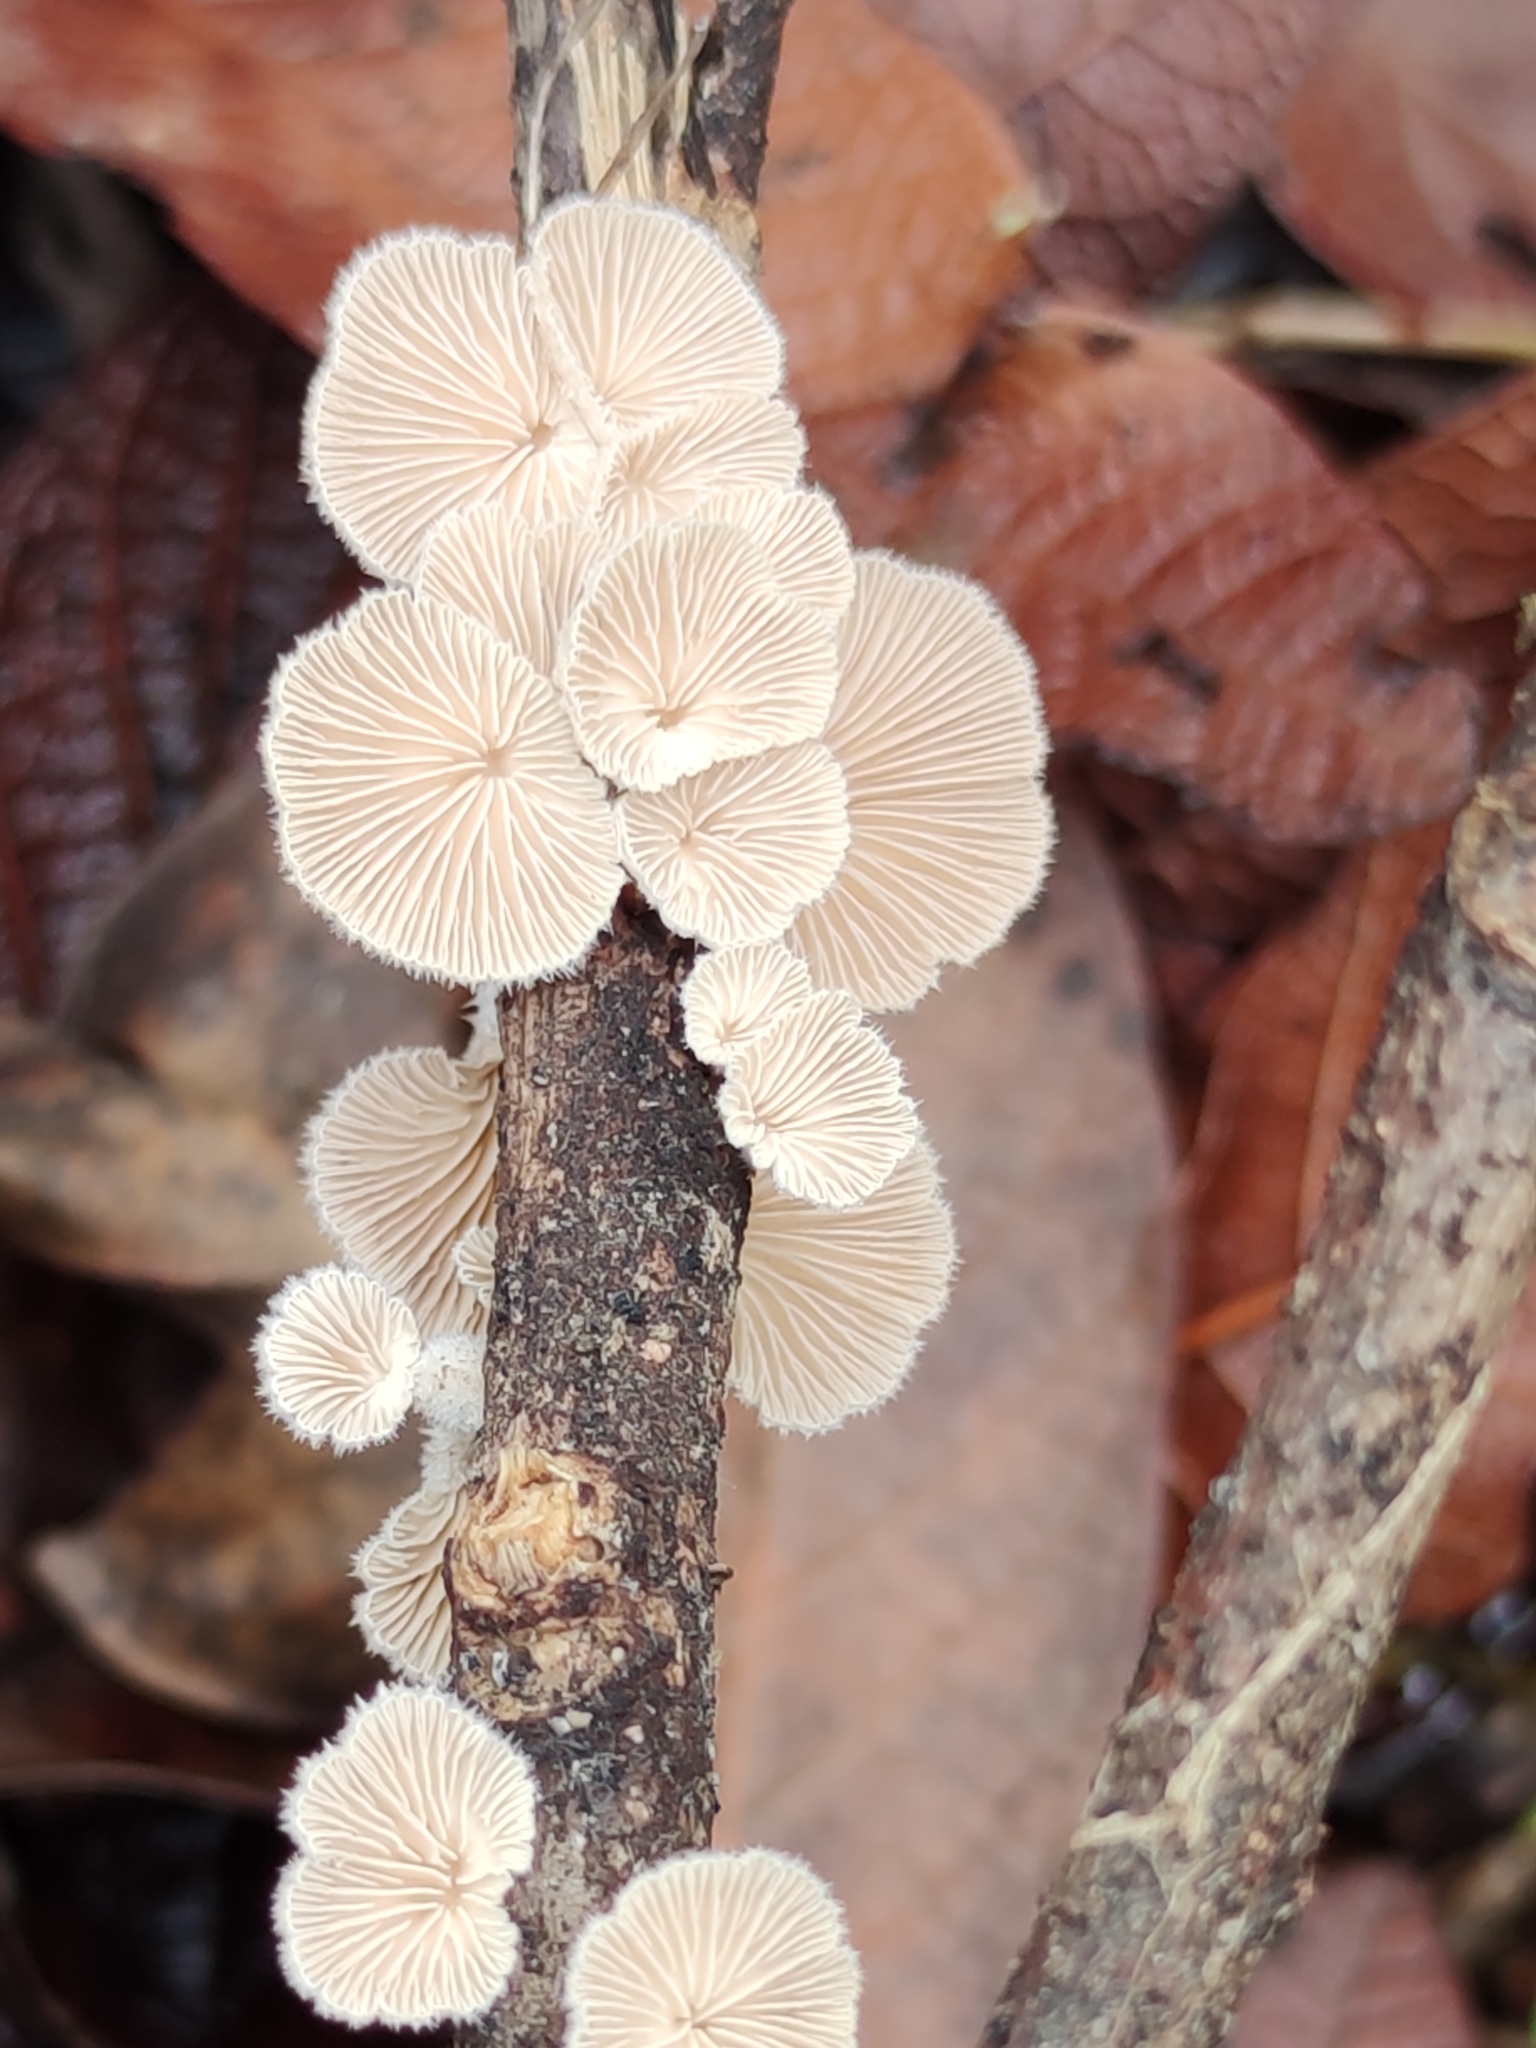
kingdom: Fungi
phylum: Basidiomycota
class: Agaricomycetes
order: Agaricales
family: Schizophyllaceae
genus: Schizophyllum
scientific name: Schizophyllum commune
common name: Common porecrust
